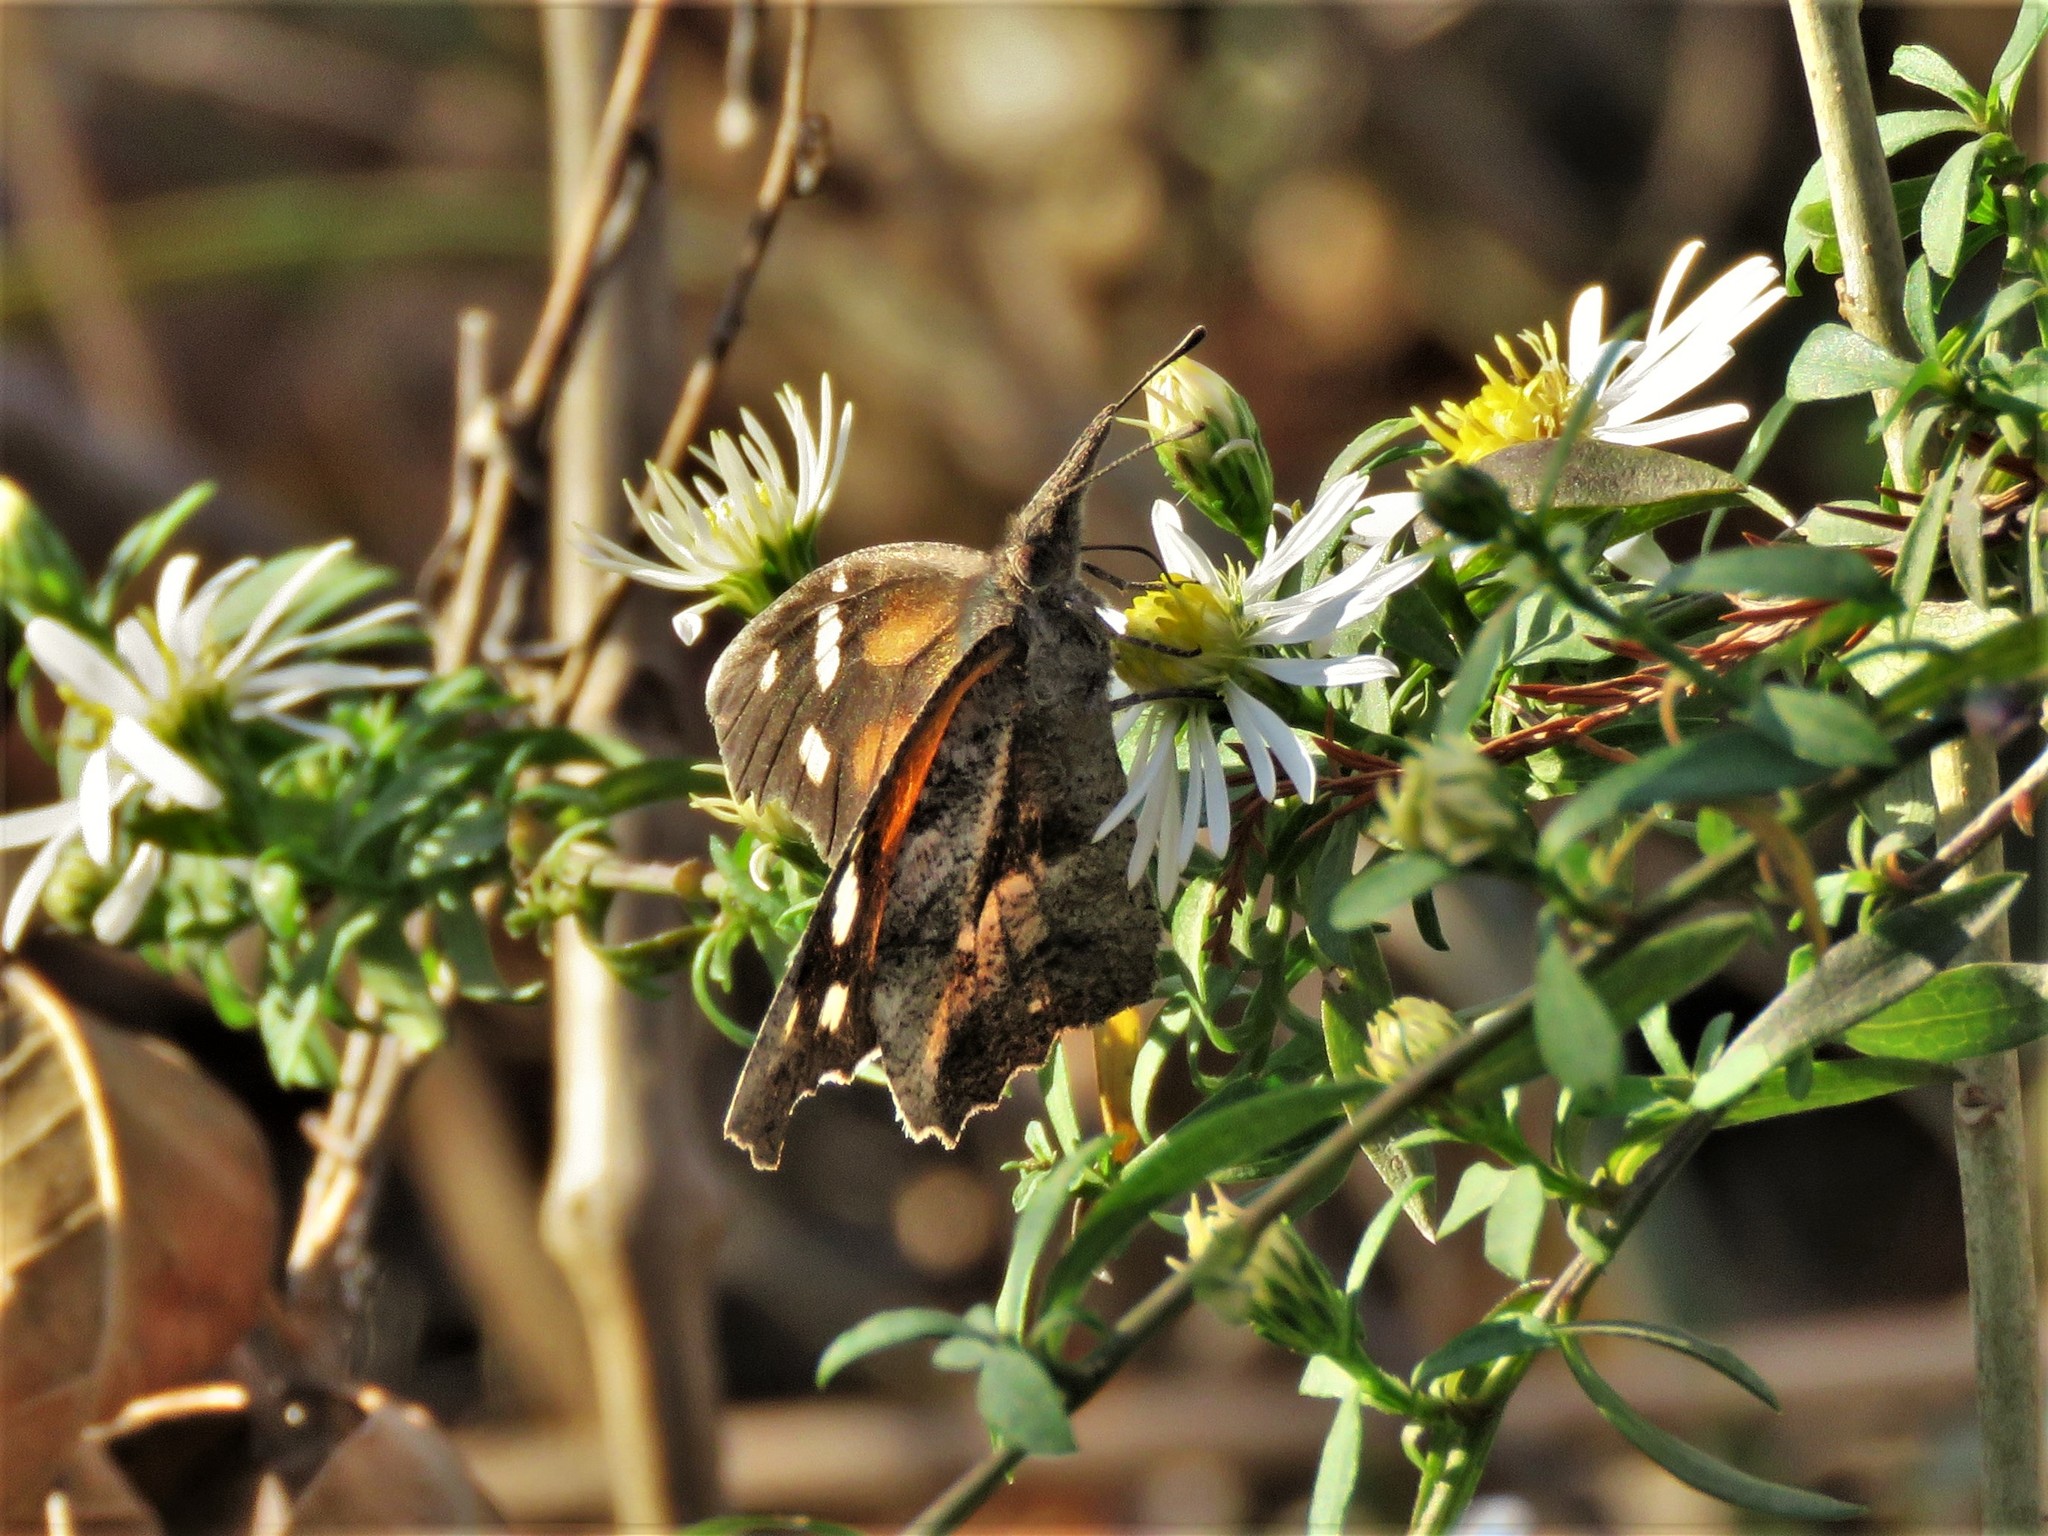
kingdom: Animalia
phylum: Arthropoda
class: Insecta
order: Lepidoptera
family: Nymphalidae
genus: Libytheana
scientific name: Libytheana carinenta
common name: American snout
